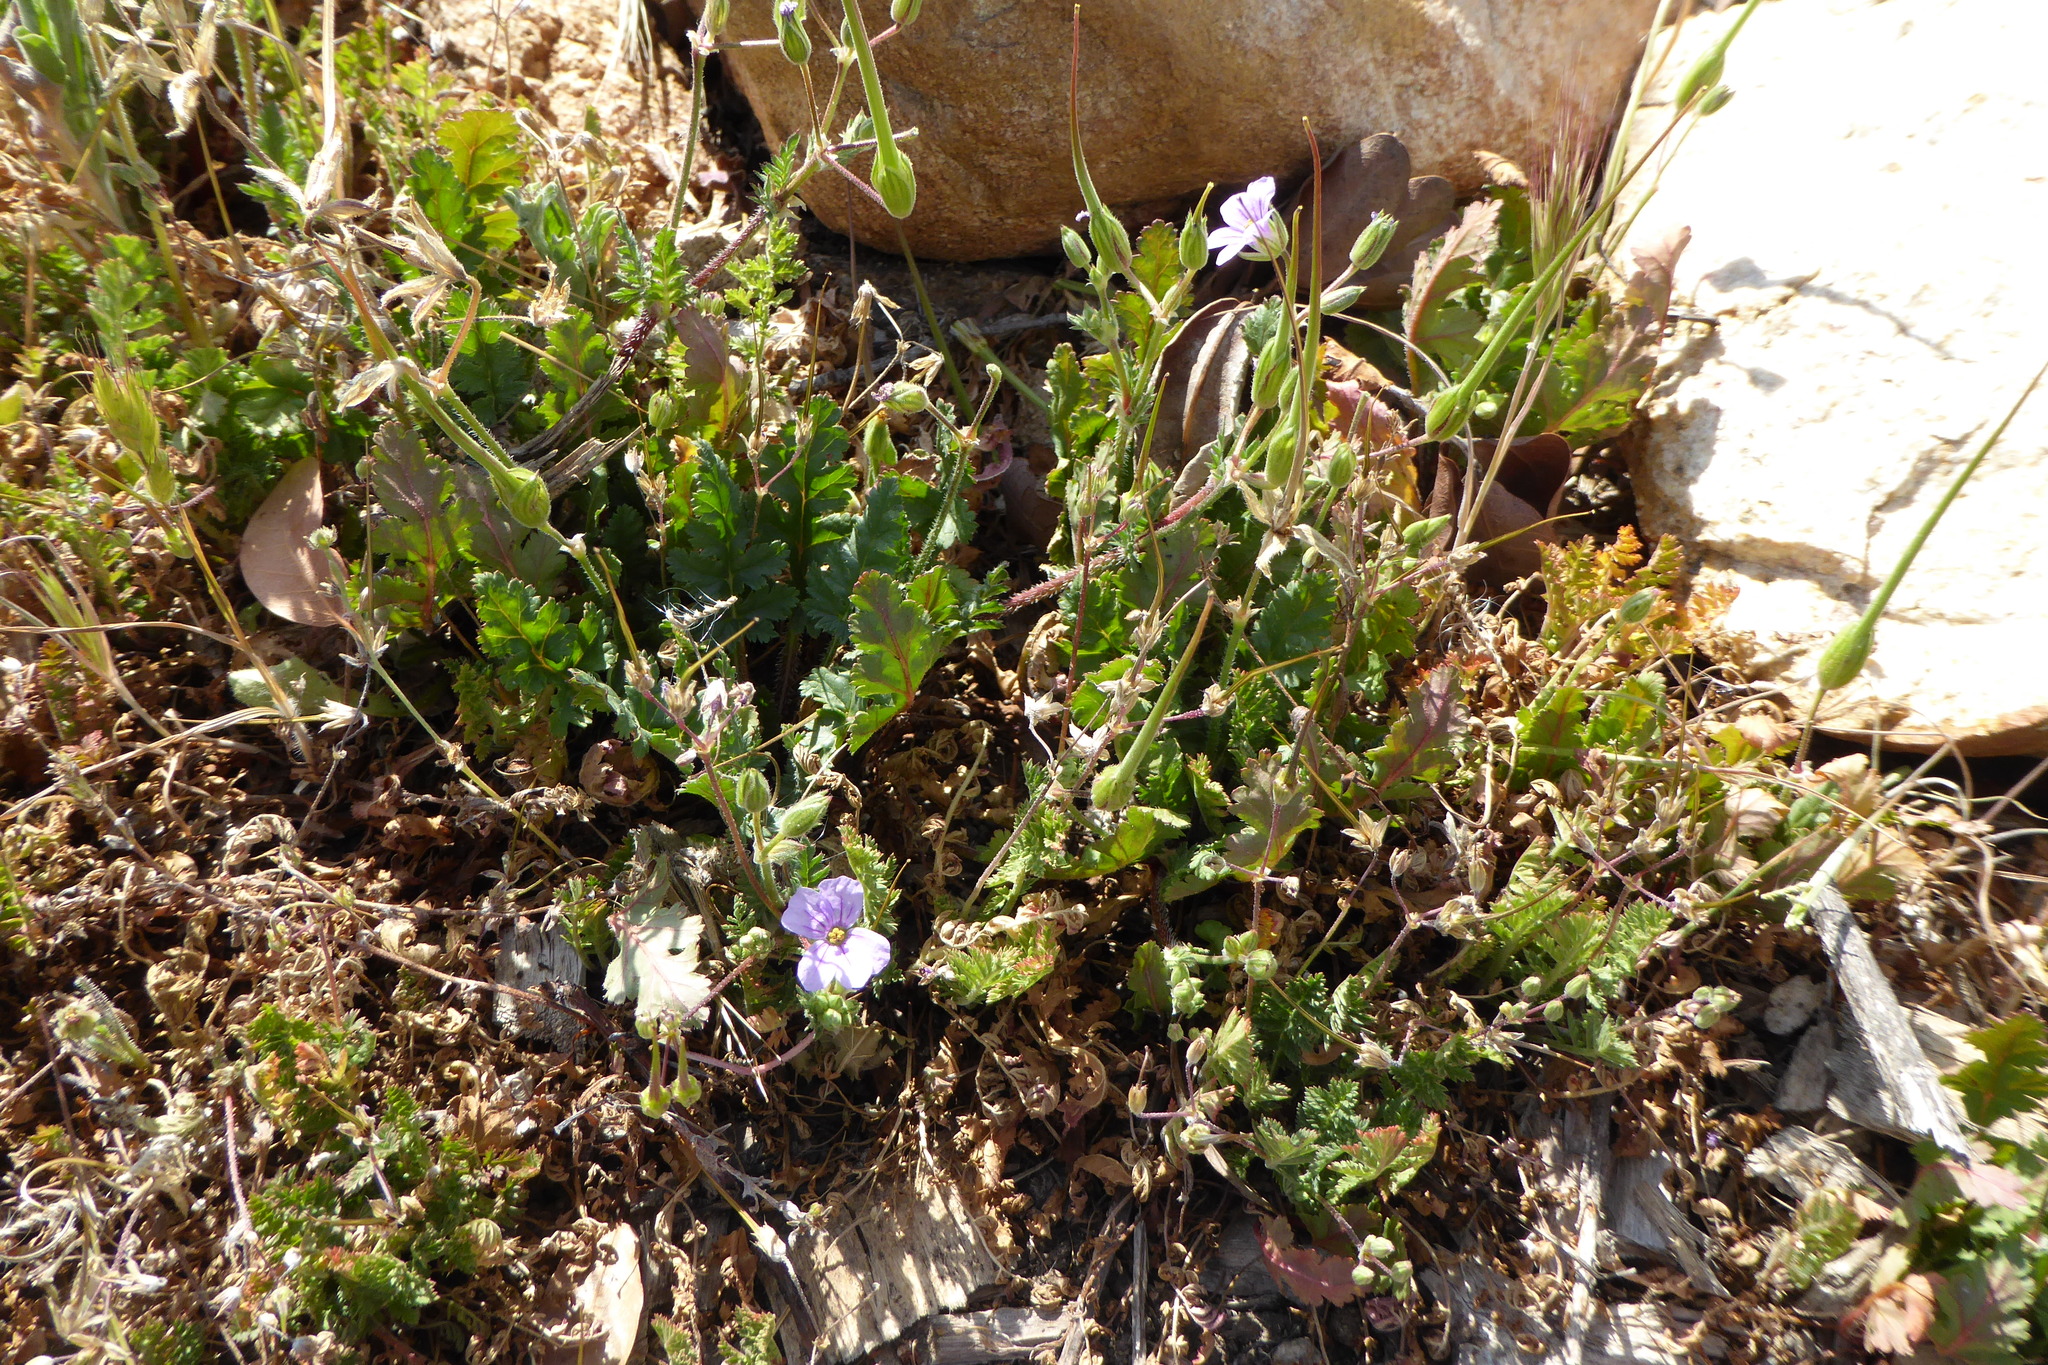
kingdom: Plantae
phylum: Tracheophyta
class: Magnoliopsida
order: Geraniales
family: Geraniaceae
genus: Erodium
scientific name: Erodium botrys
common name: Mediterranean stork's-bill
